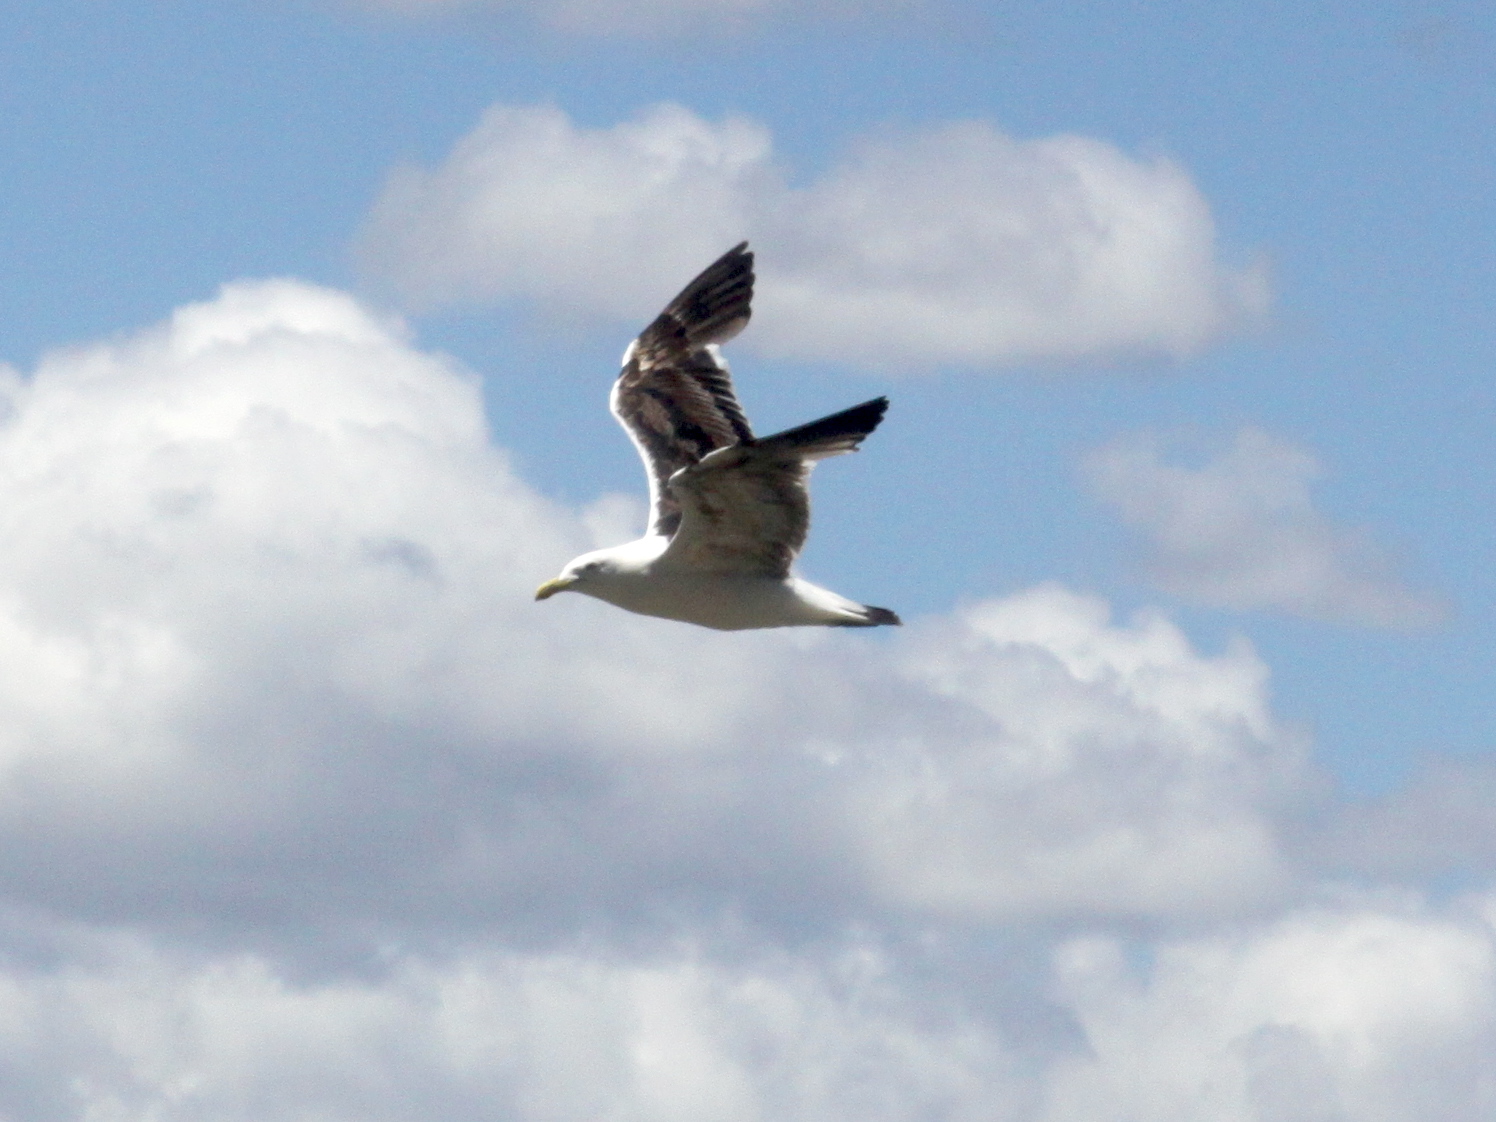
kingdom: Animalia
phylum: Chordata
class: Aves
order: Charadriiformes
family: Laridae
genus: Larus
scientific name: Larus dominicanus
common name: Kelp gull
